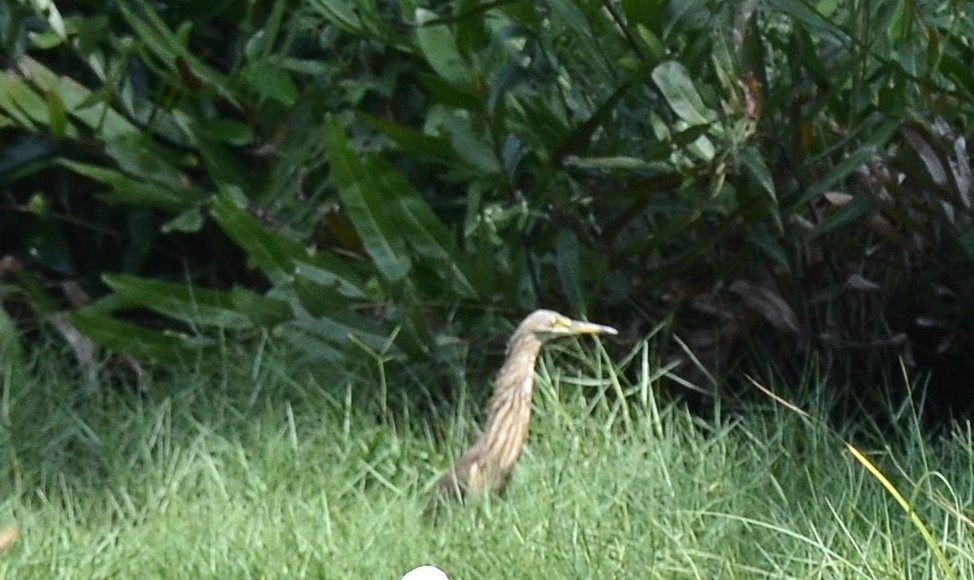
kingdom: Animalia
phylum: Chordata
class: Aves
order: Pelecaniformes
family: Ardeidae
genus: Ardeola
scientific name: Ardeola grayii
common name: Indian pond heron
